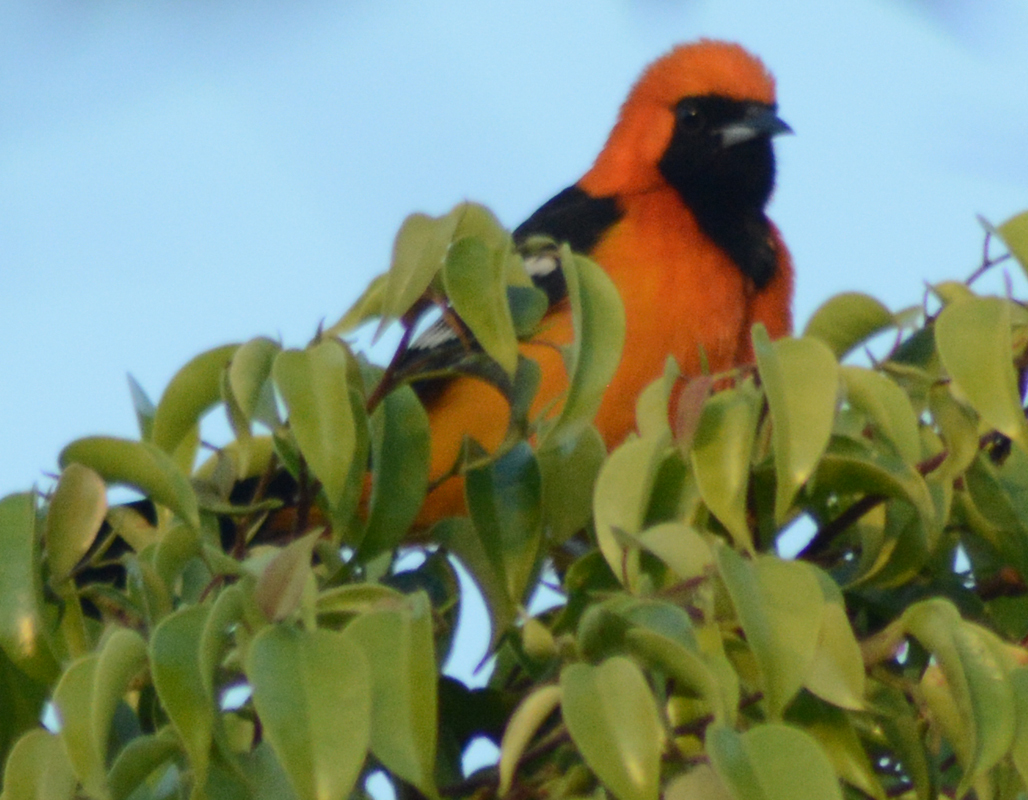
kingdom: Animalia
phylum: Chordata
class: Aves
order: Passeriformes
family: Icteridae
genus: Icterus
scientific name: Icterus cucullatus
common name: Hooded oriole
